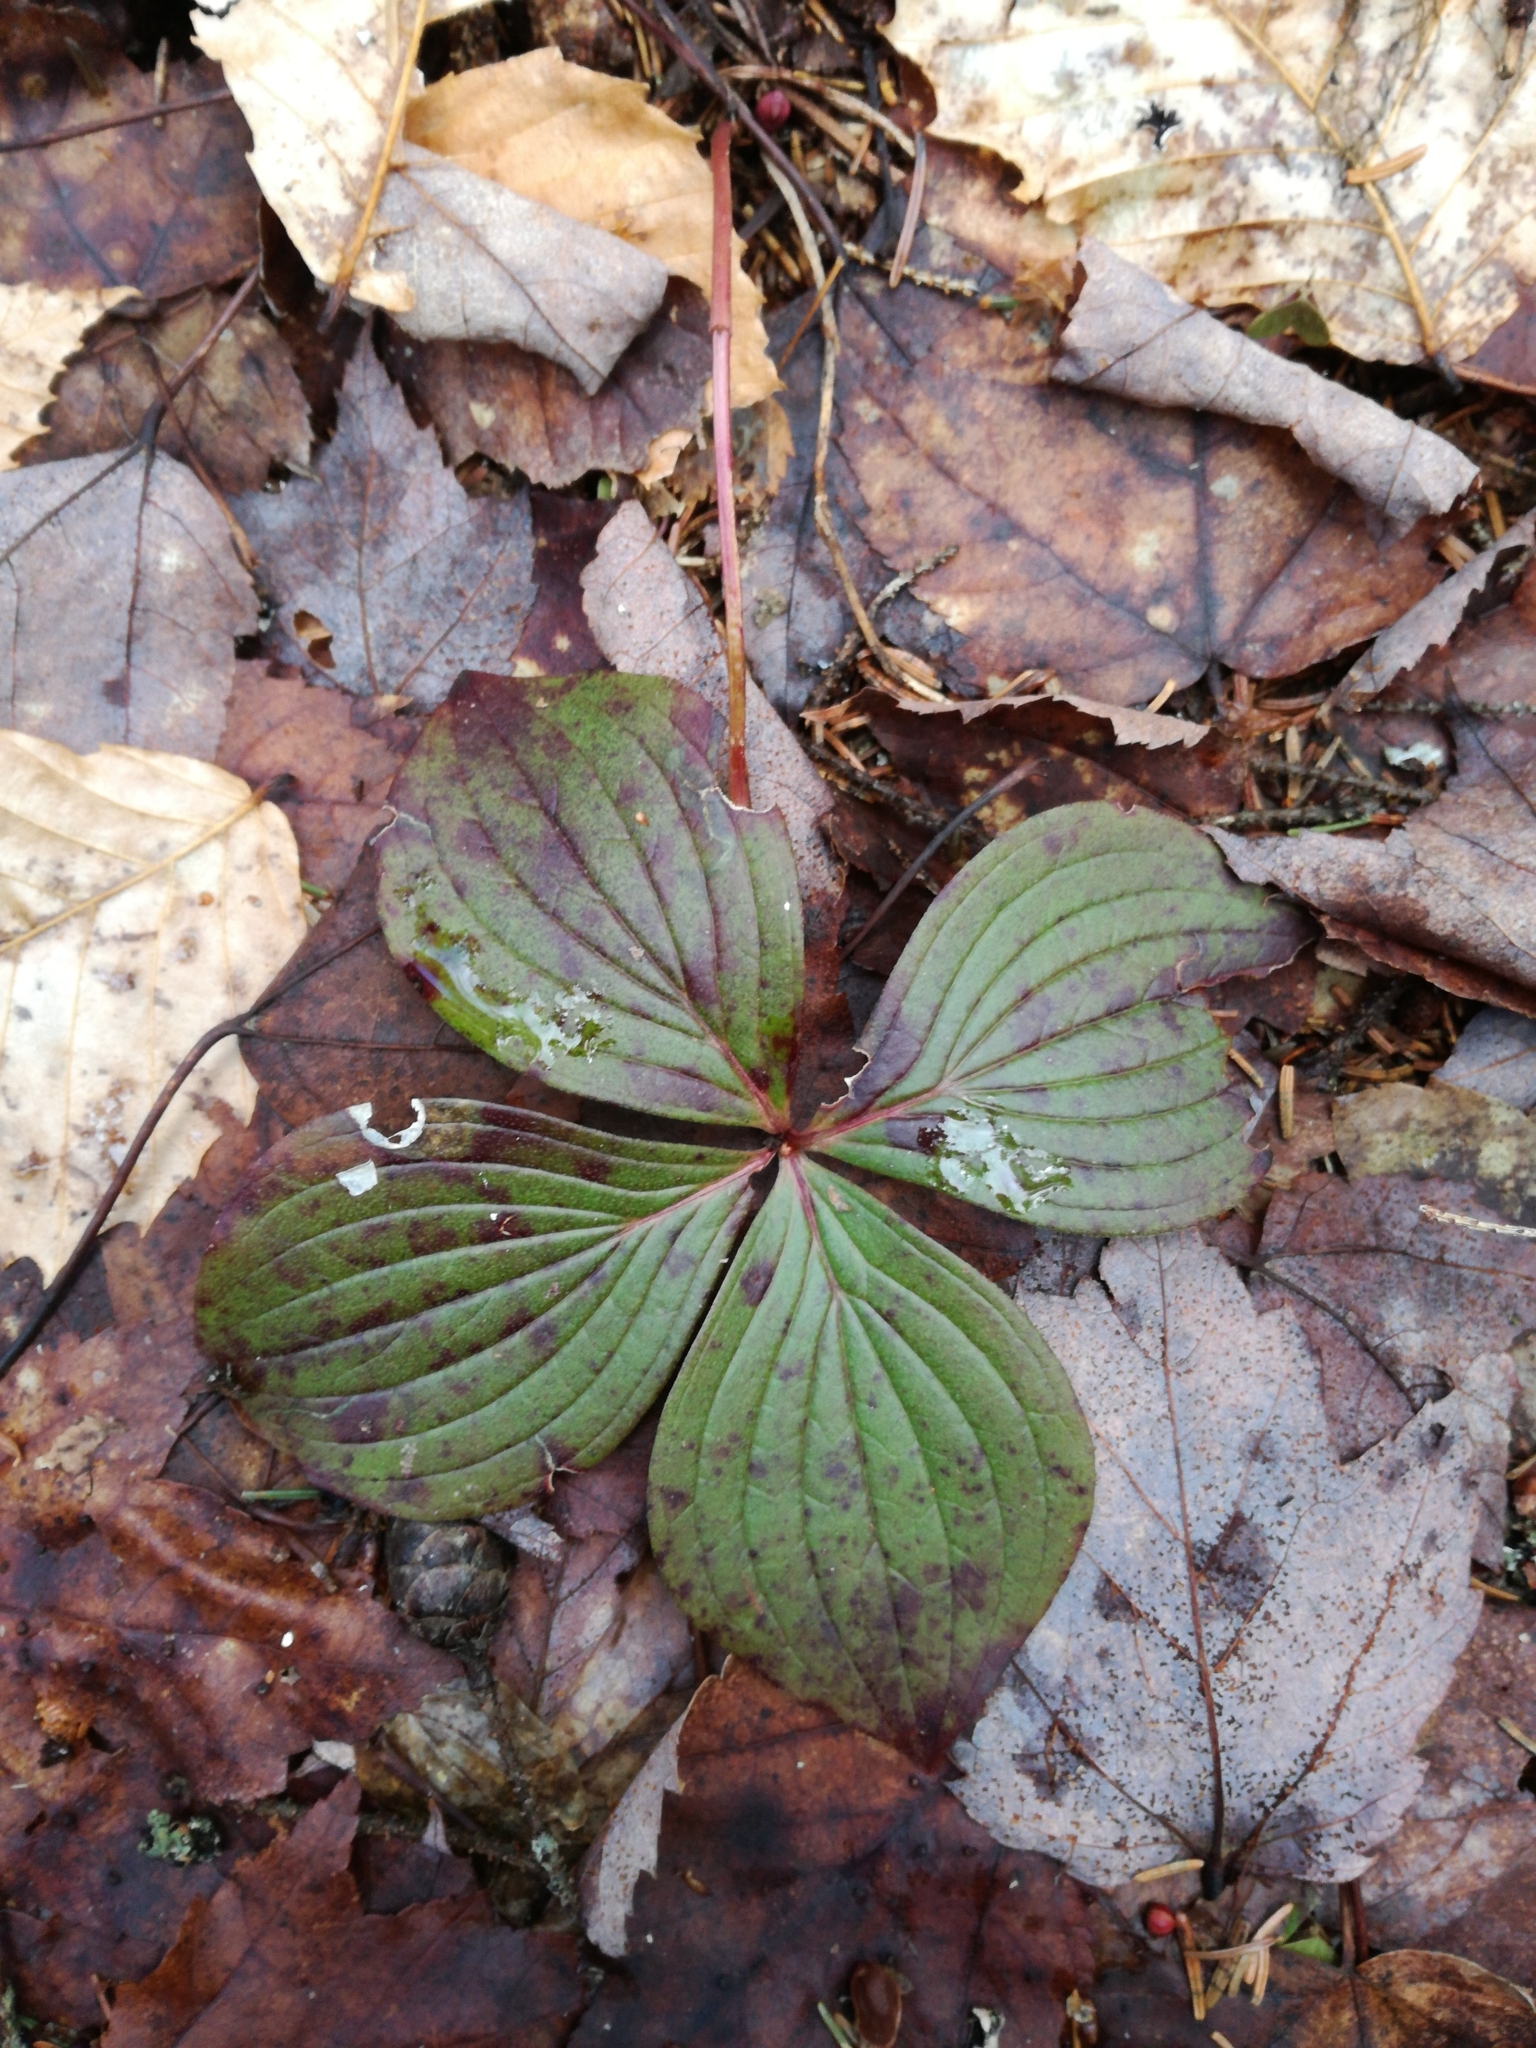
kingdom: Plantae
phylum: Tracheophyta
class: Magnoliopsida
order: Cornales
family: Cornaceae
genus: Cornus
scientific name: Cornus canadensis
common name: Creeping dogwood
